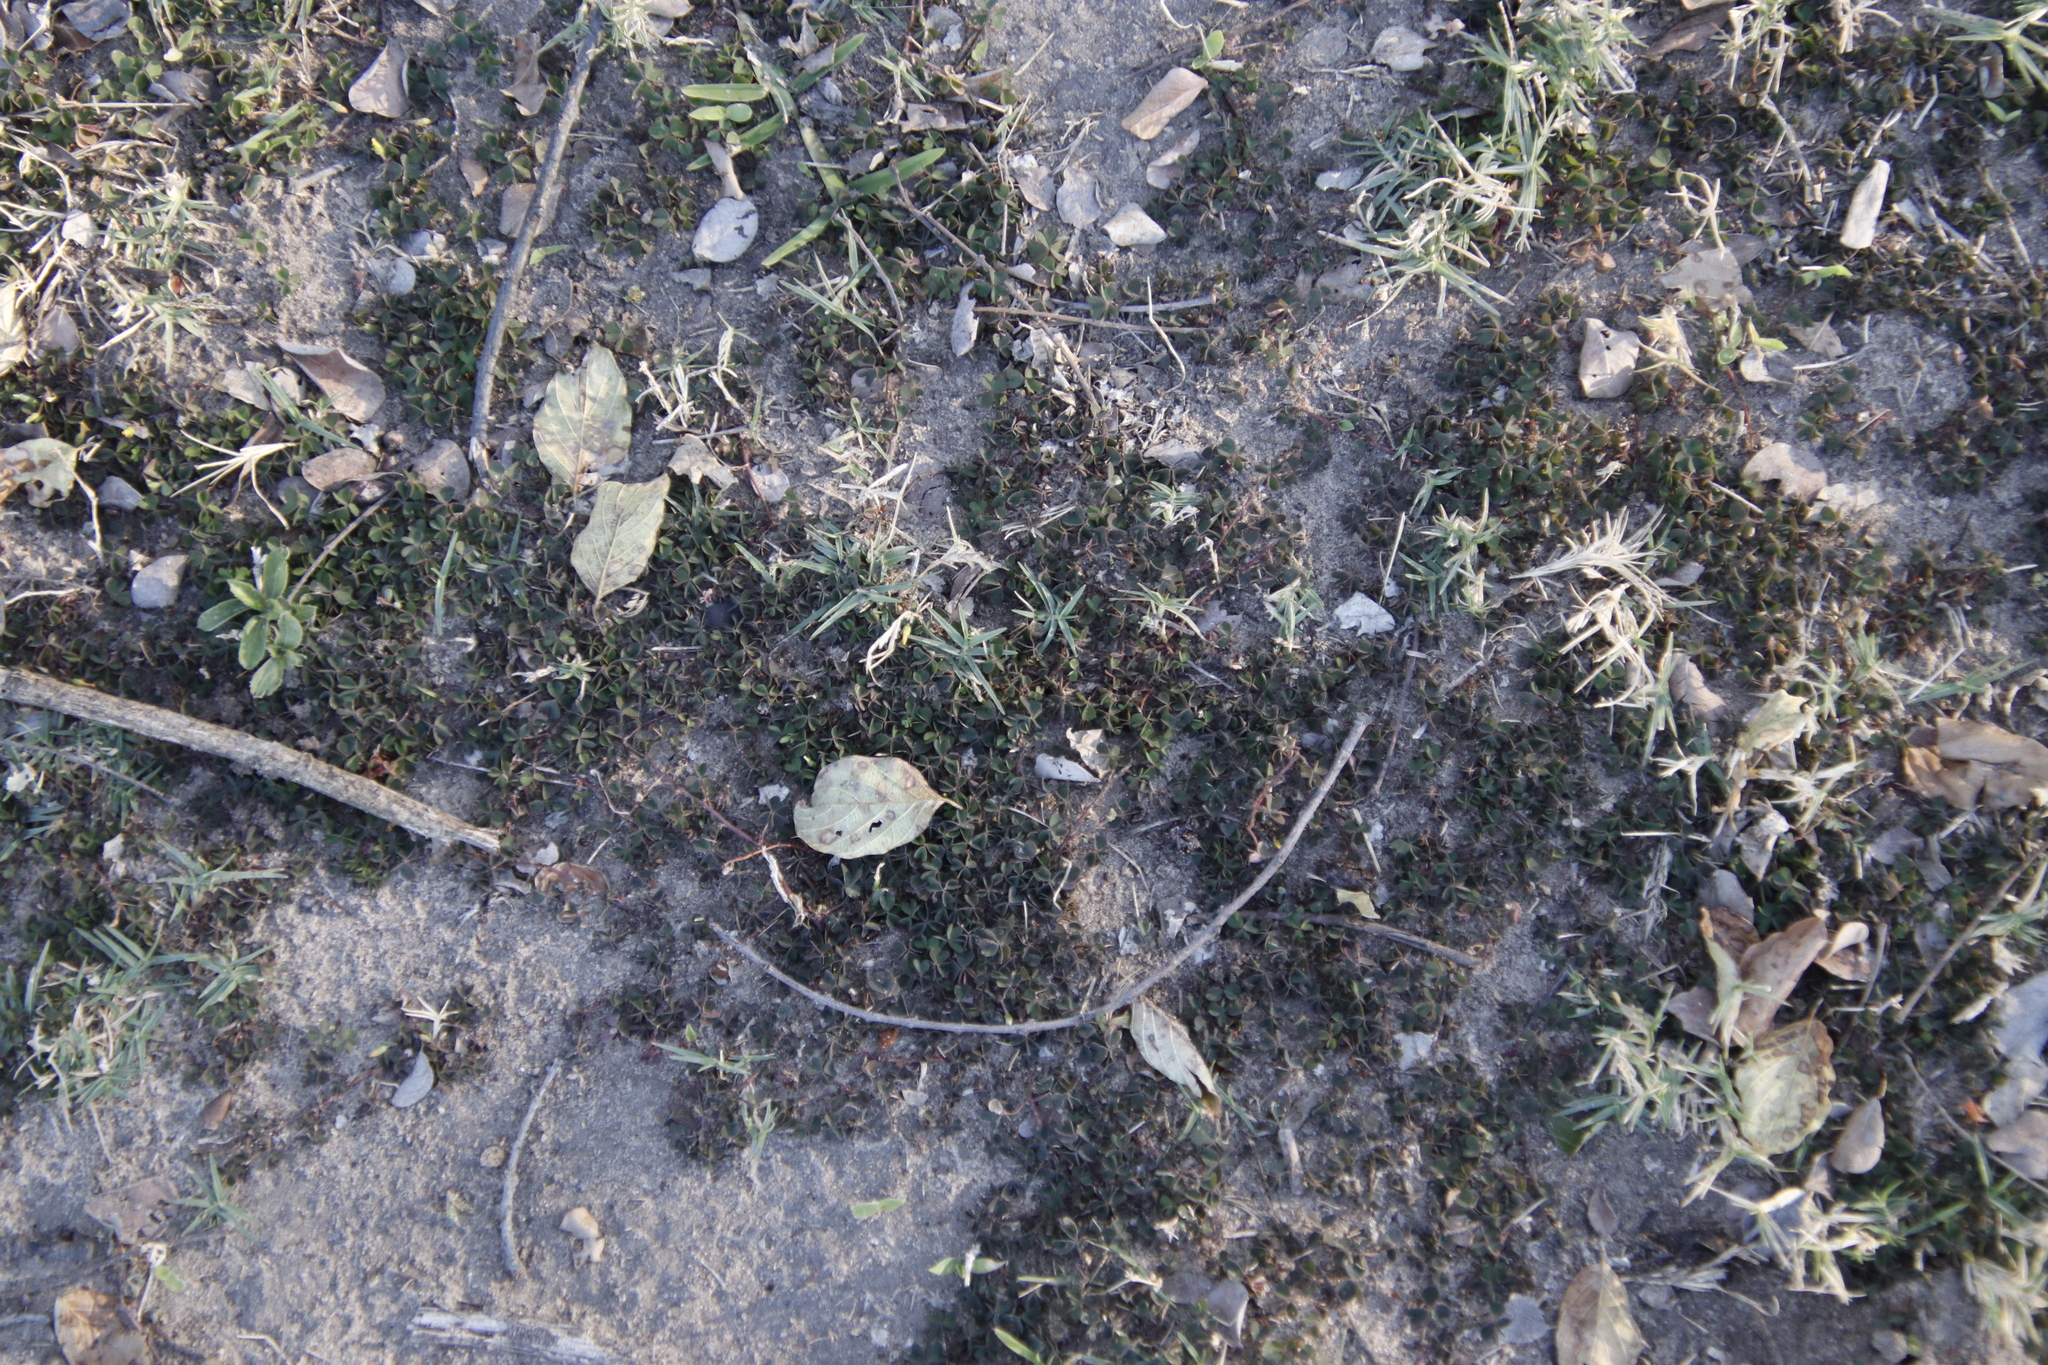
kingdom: Plantae
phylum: Tracheophyta
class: Magnoliopsida
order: Oxalidales
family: Oxalidaceae
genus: Oxalis
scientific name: Oxalis corniculata
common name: Procumbent yellow-sorrel
